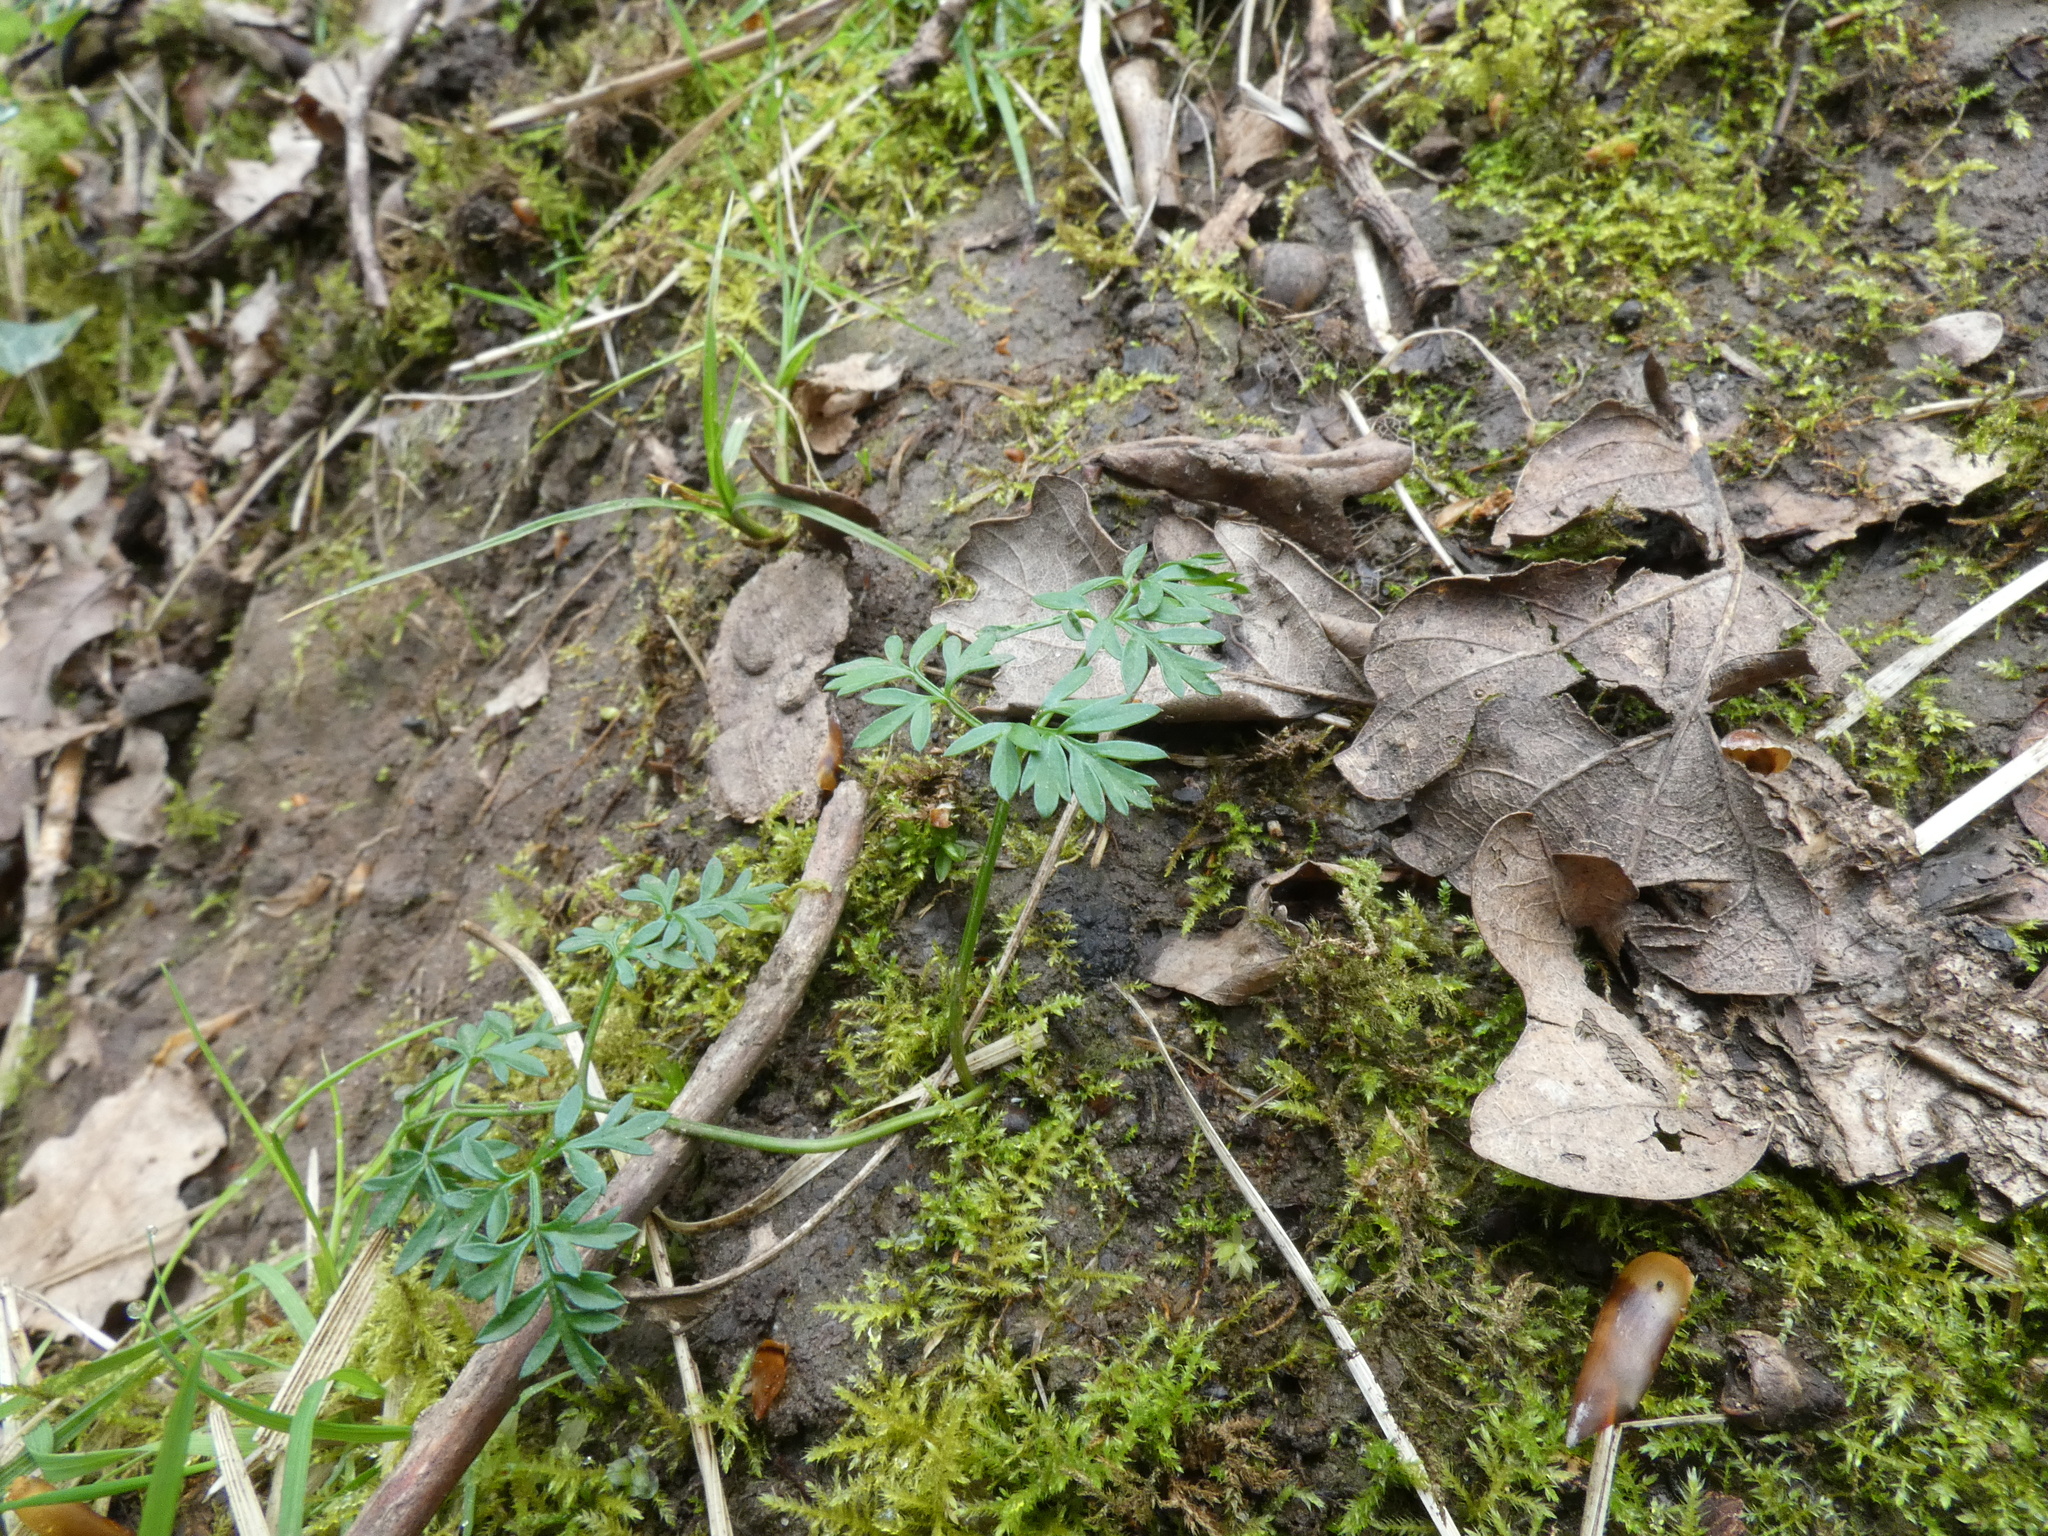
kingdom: Plantae
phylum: Tracheophyta
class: Magnoliopsida
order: Apiales
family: Apiaceae
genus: Conopodium
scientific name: Conopodium majus
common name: Pignut
